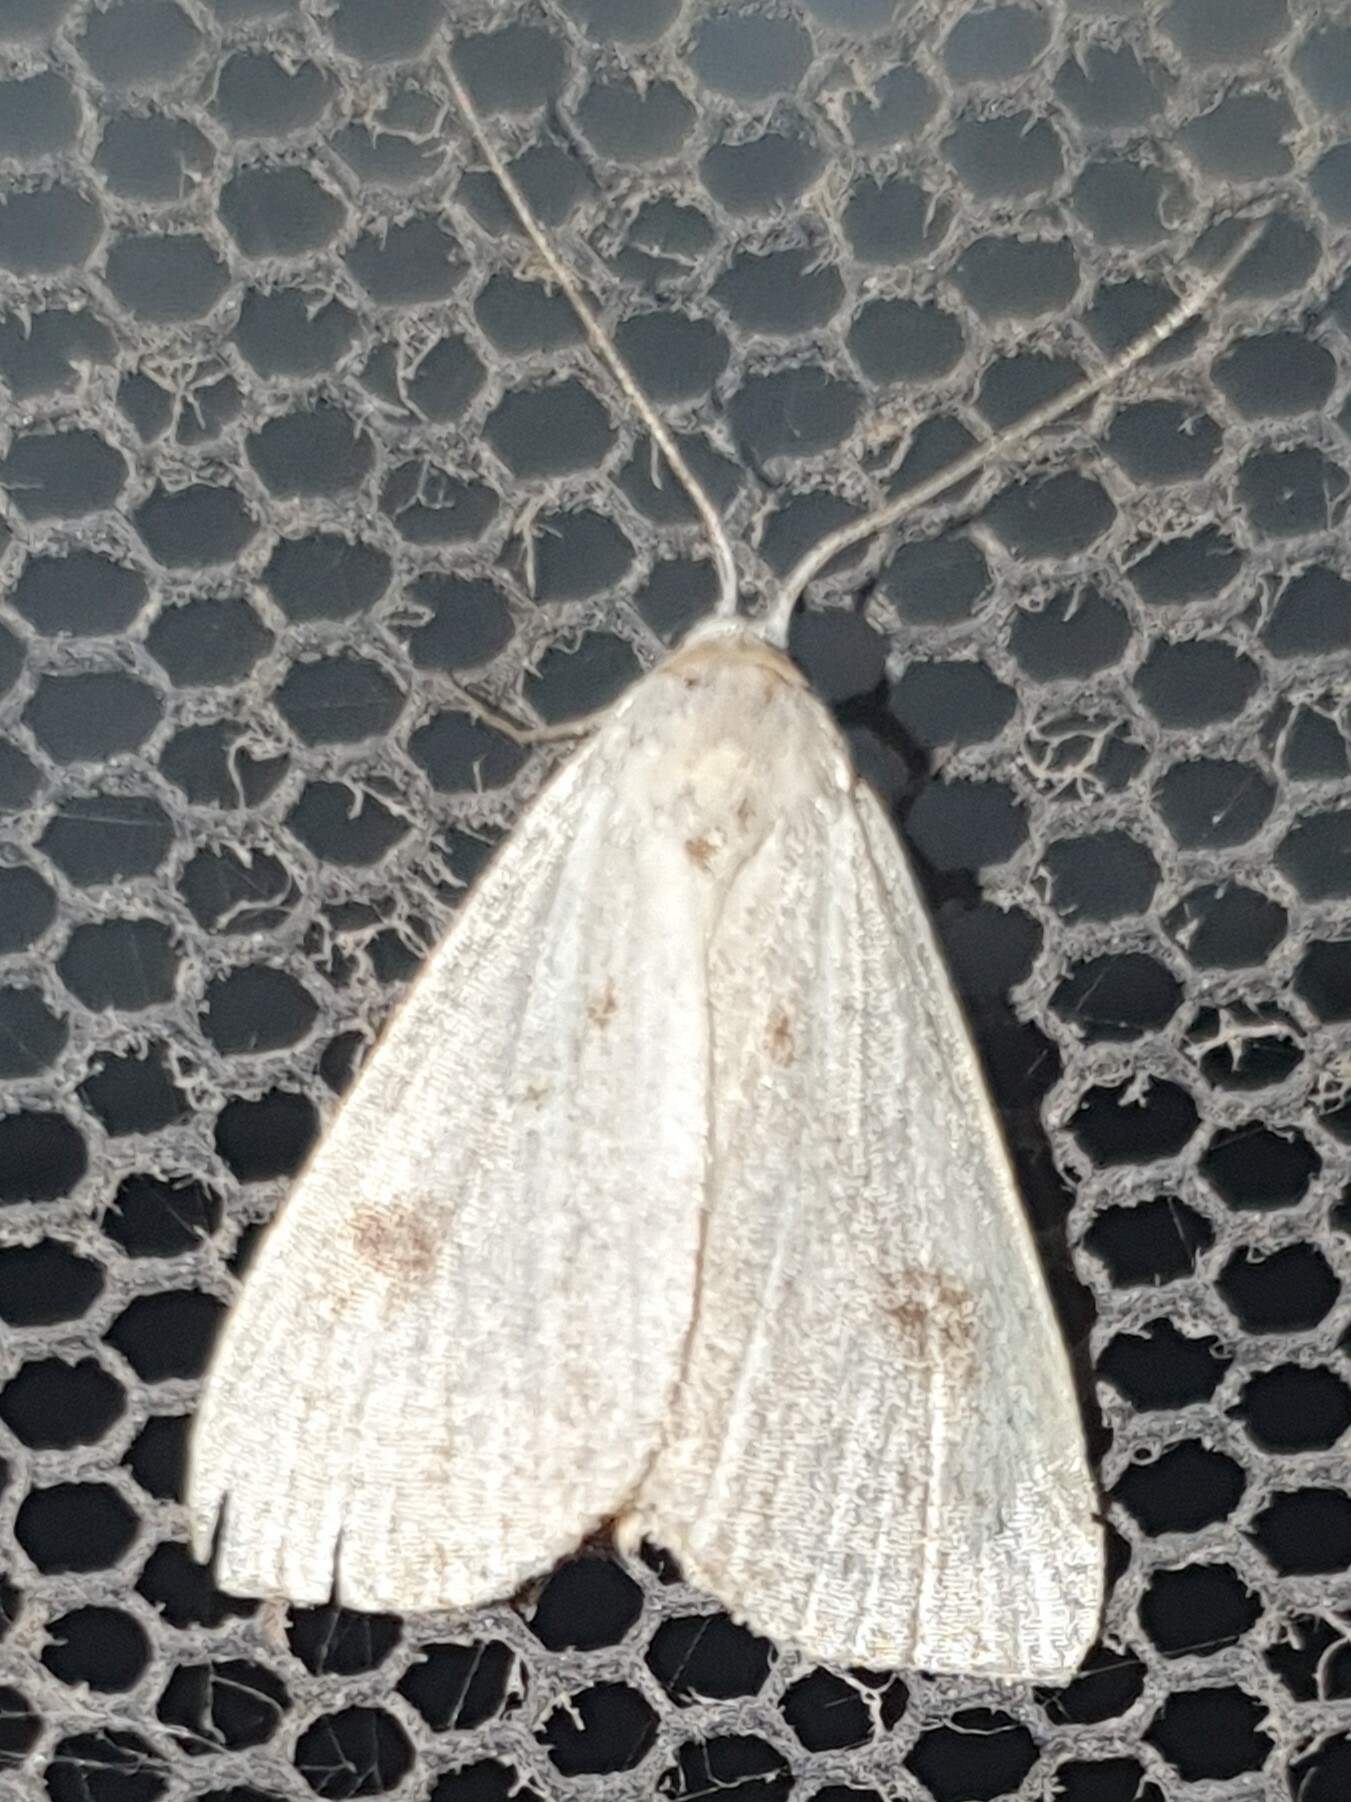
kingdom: Animalia
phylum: Arthropoda
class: Insecta
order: Lepidoptera
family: Erebidae
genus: Rivula
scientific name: Rivula sericealis
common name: Straw dot
